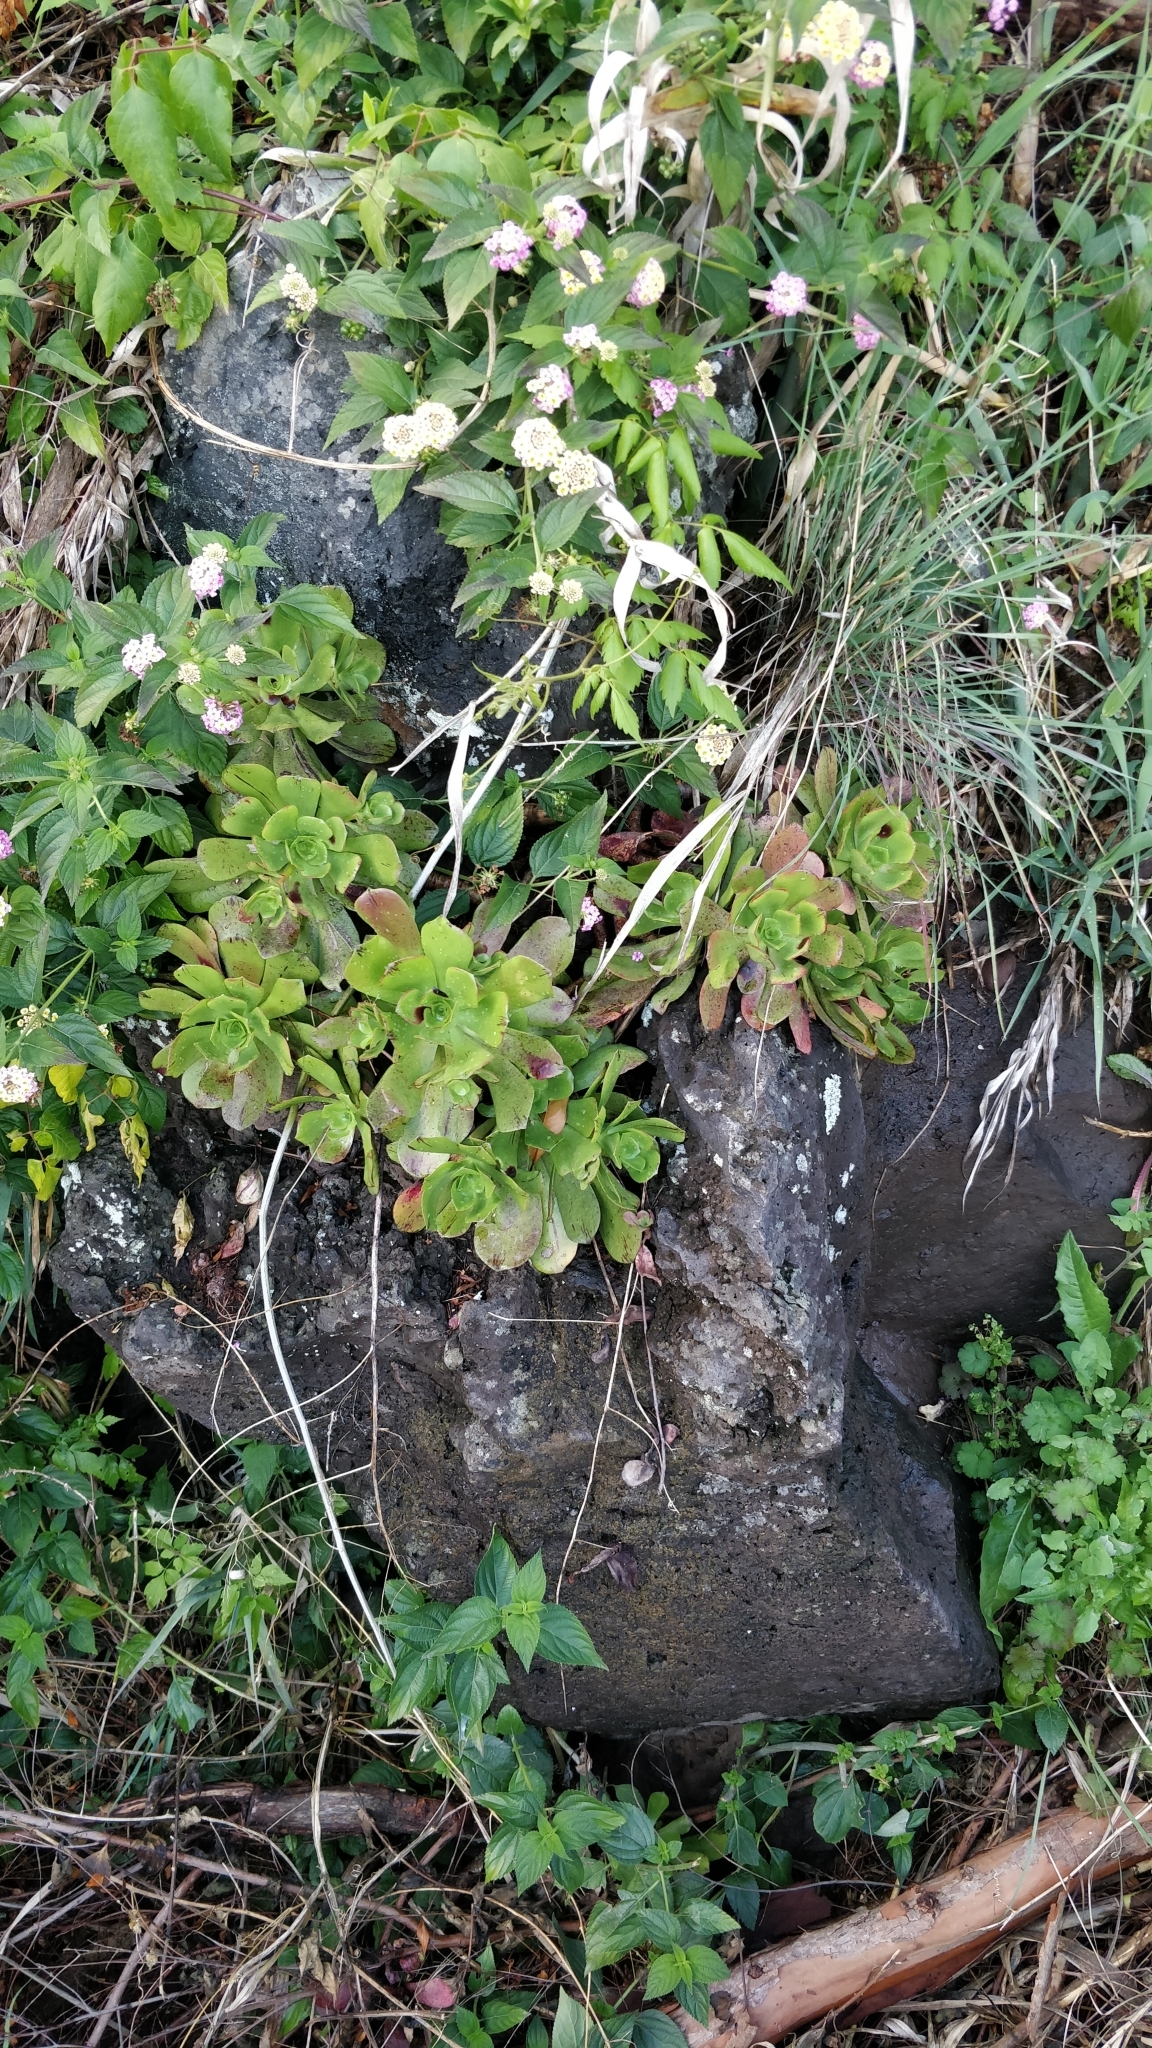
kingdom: Plantae
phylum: Tracheophyta
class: Magnoliopsida
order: Saxifragales
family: Crassulaceae
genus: Aeonium
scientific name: Aeonium glutinosum
